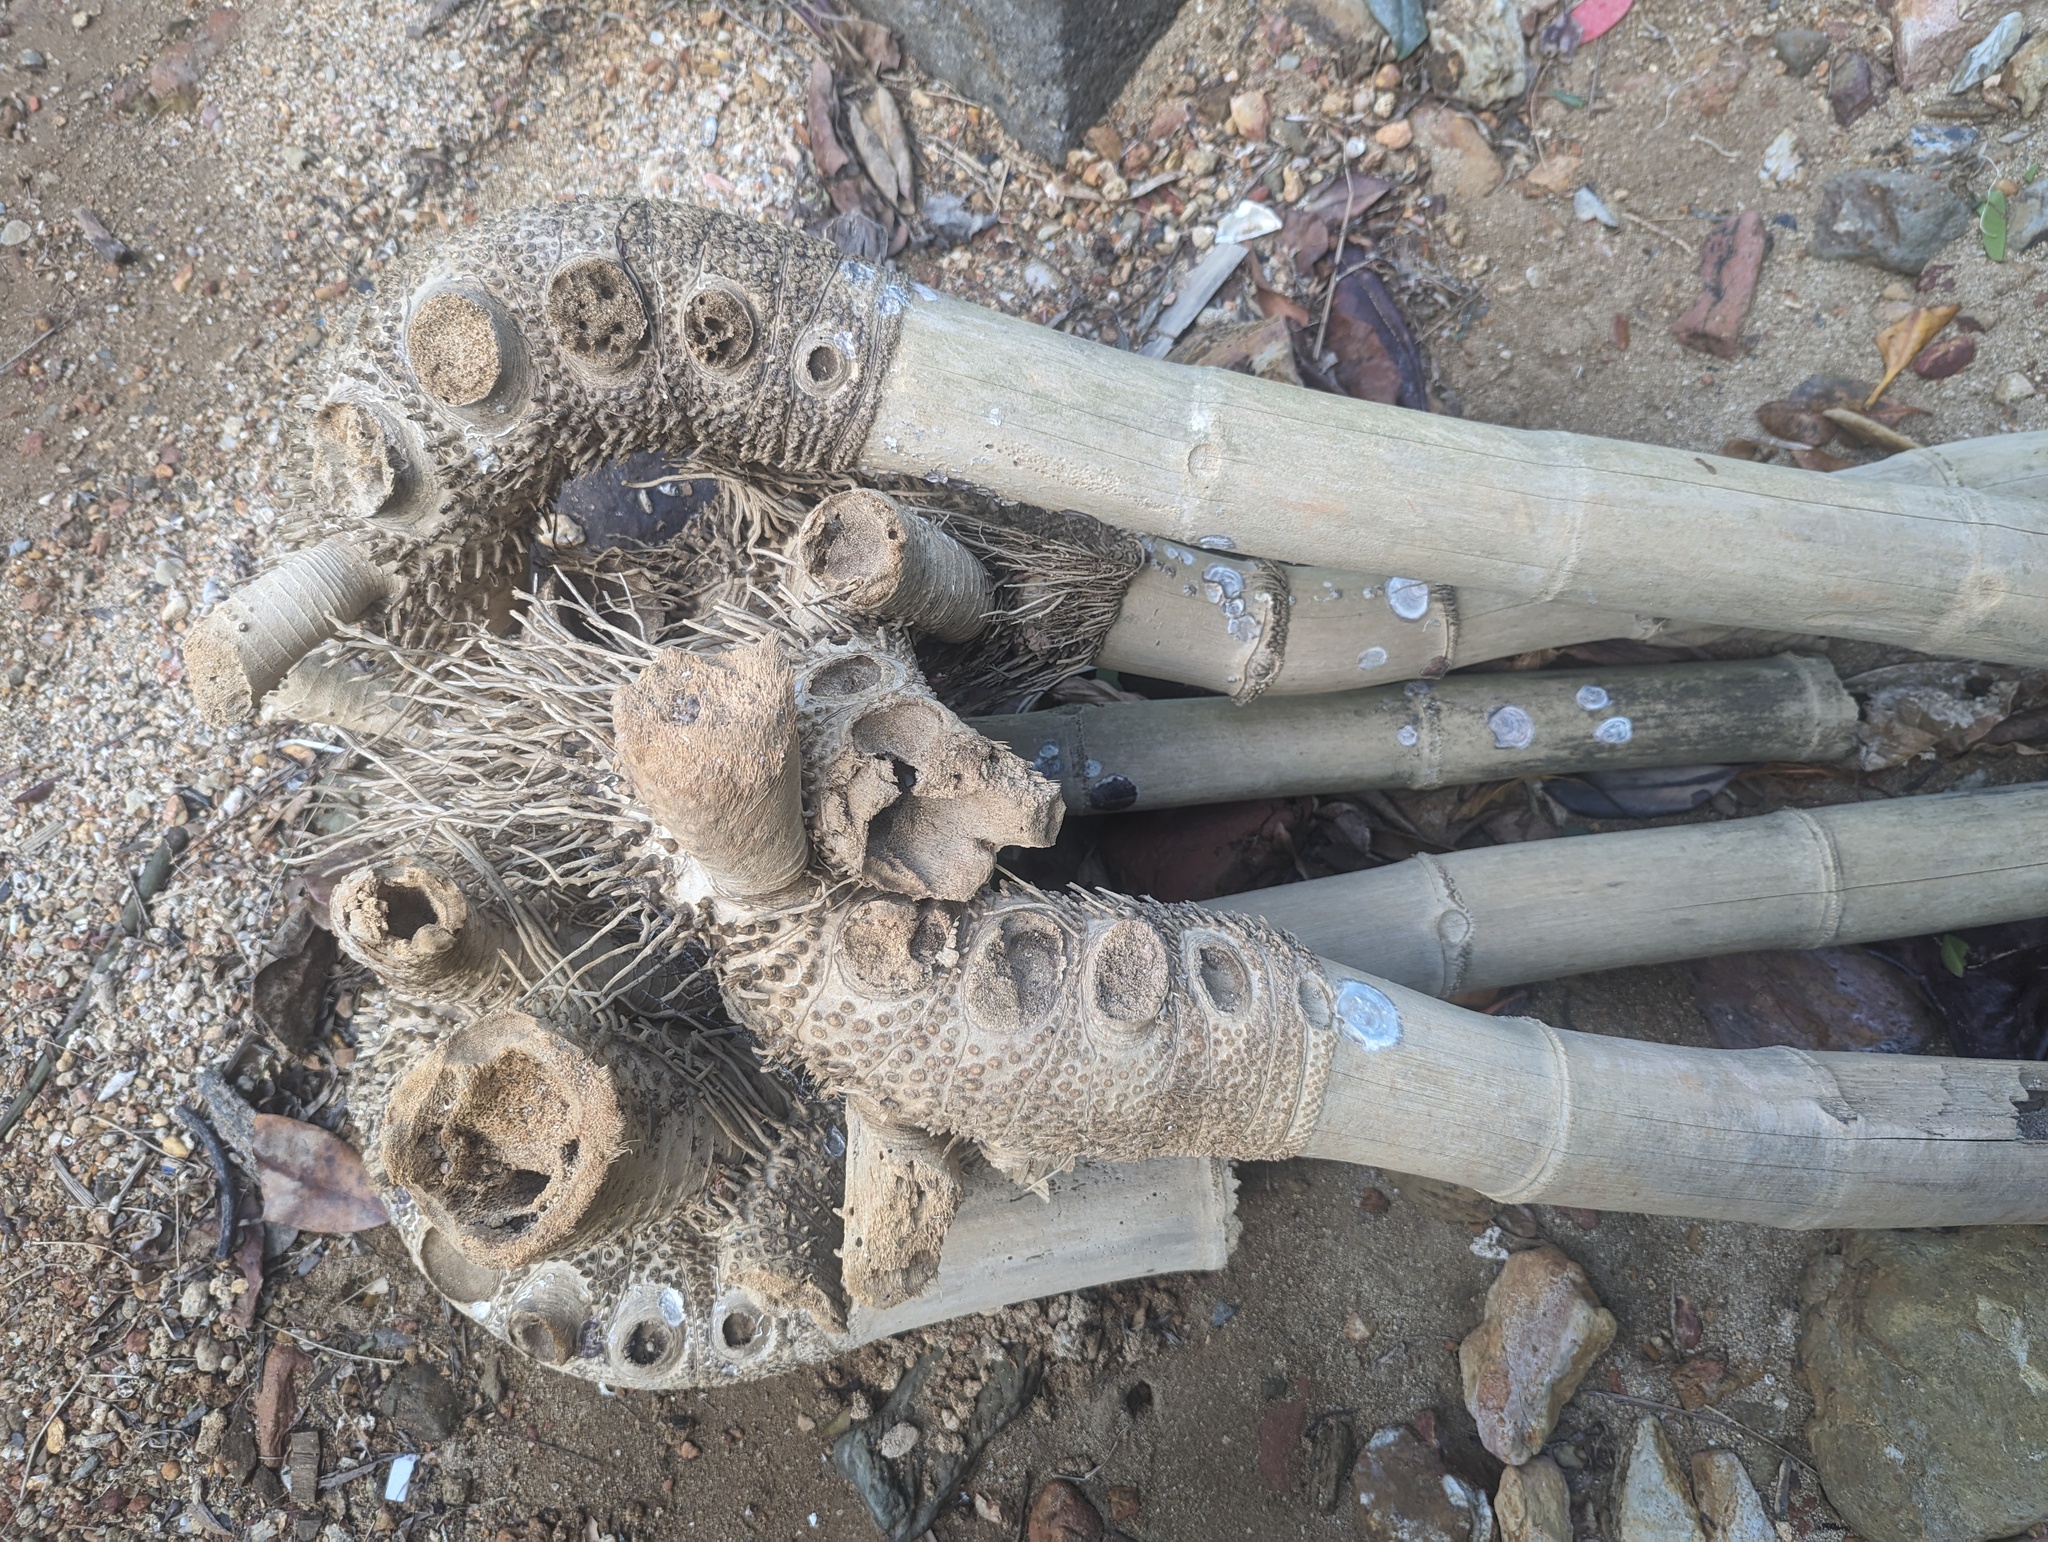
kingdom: Plantae
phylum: Tracheophyta
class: Liliopsida
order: Poales
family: Poaceae
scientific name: Poaceae
